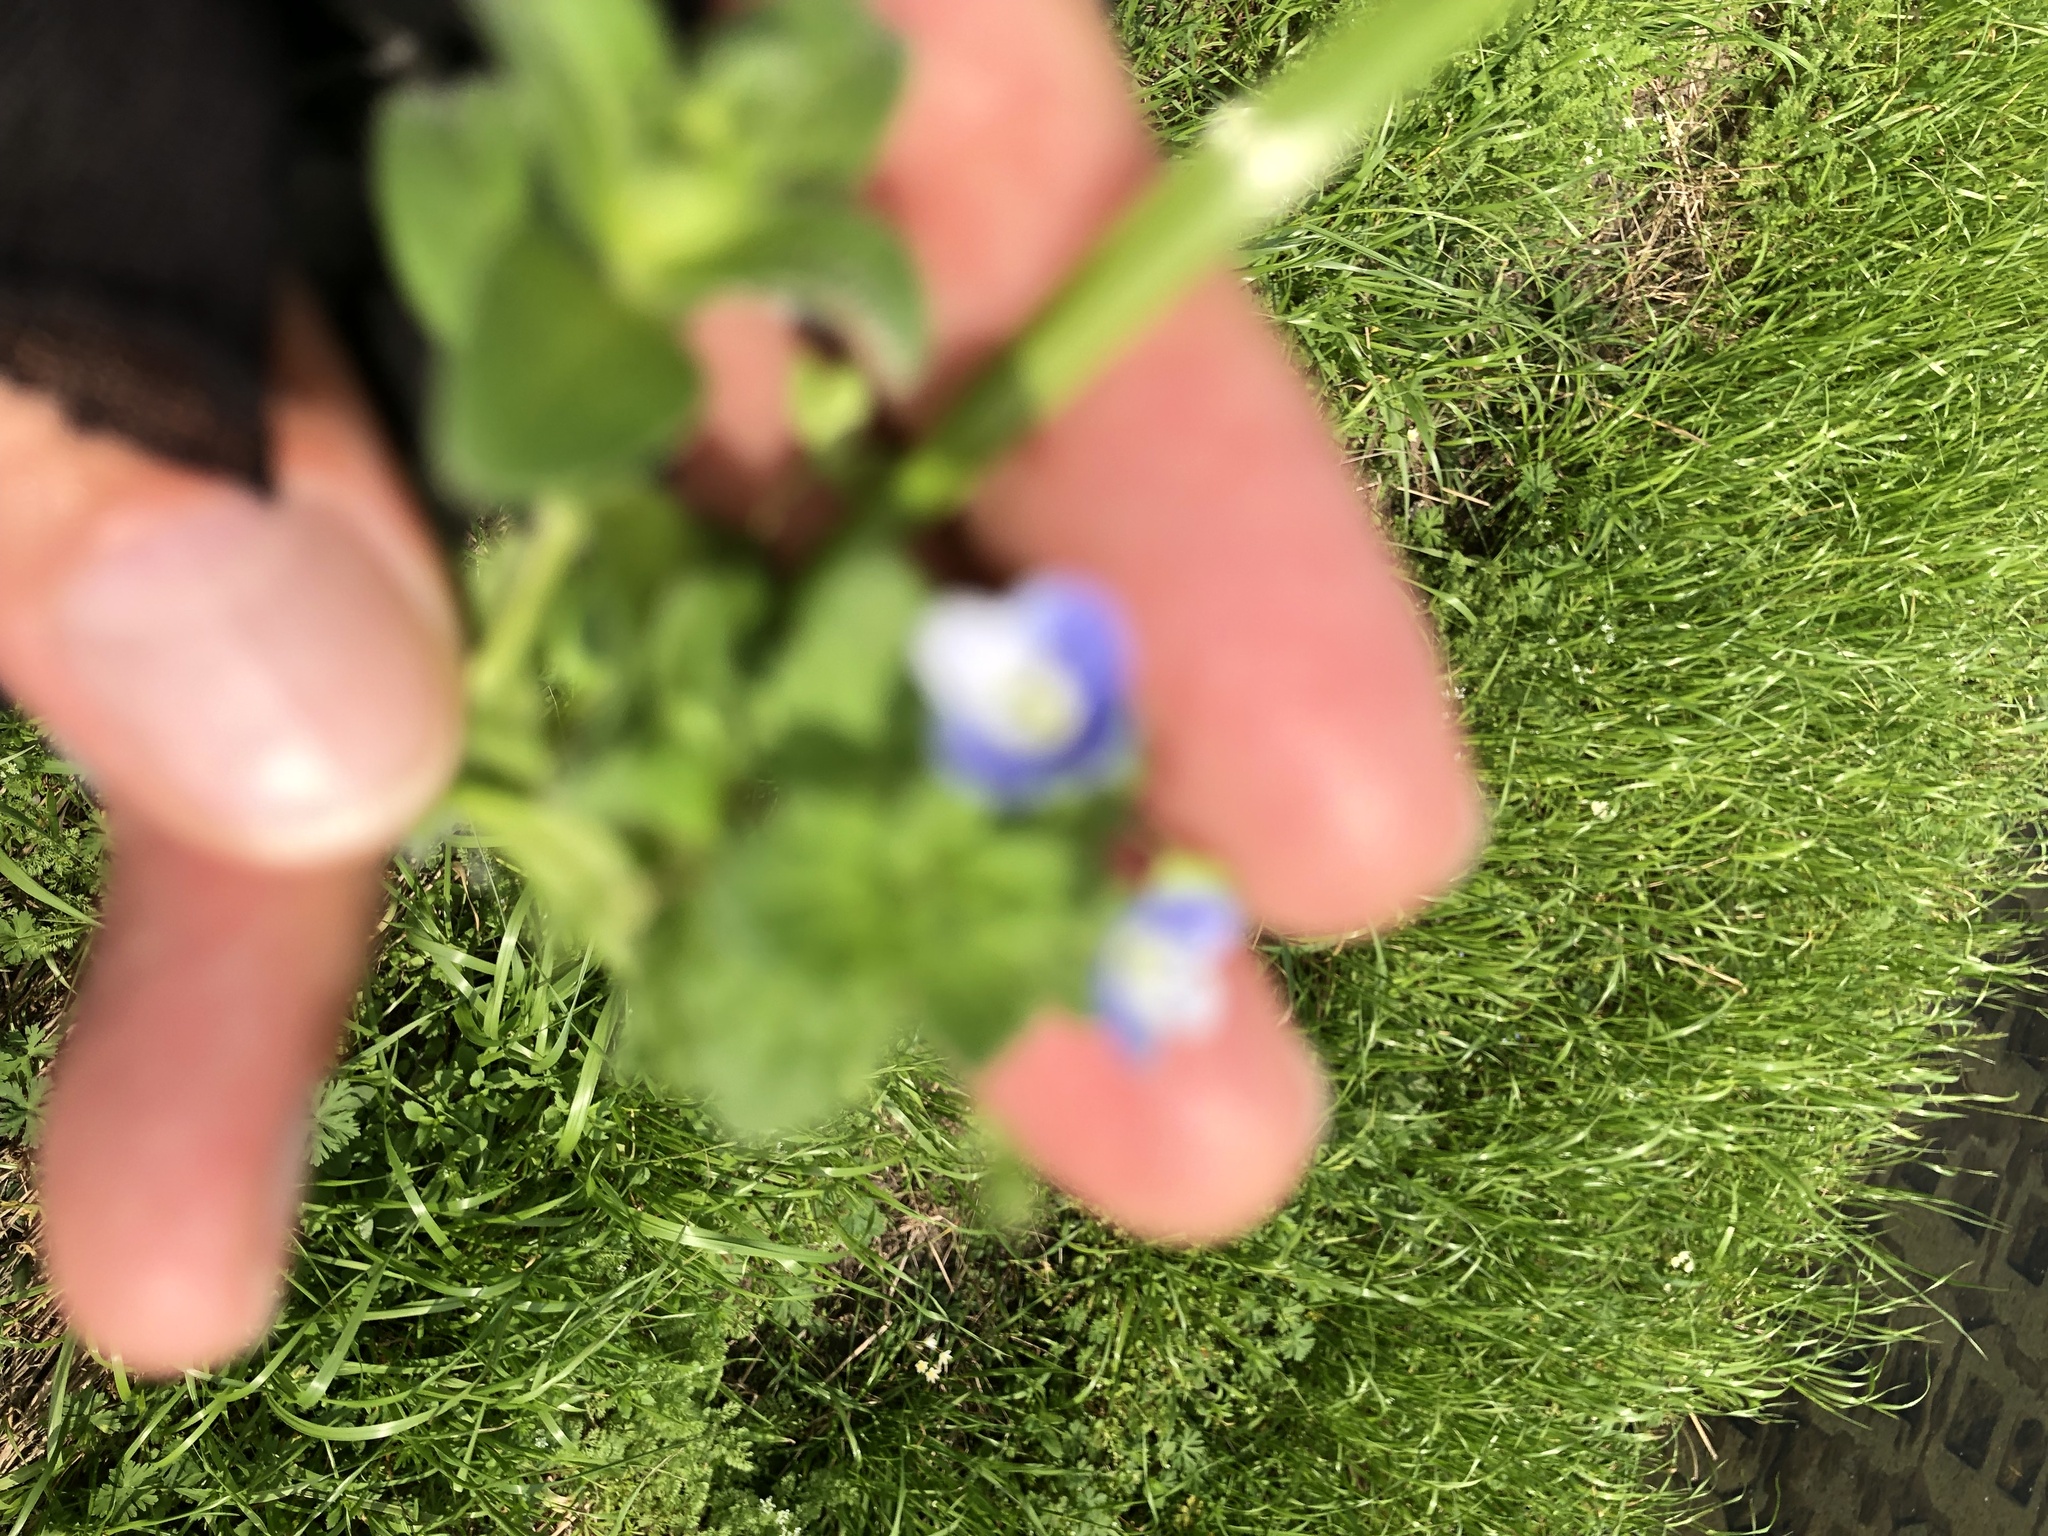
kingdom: Plantae
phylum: Tracheophyta
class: Magnoliopsida
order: Lamiales
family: Plantaginaceae
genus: Veronica
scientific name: Veronica persica
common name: Common field-speedwell
